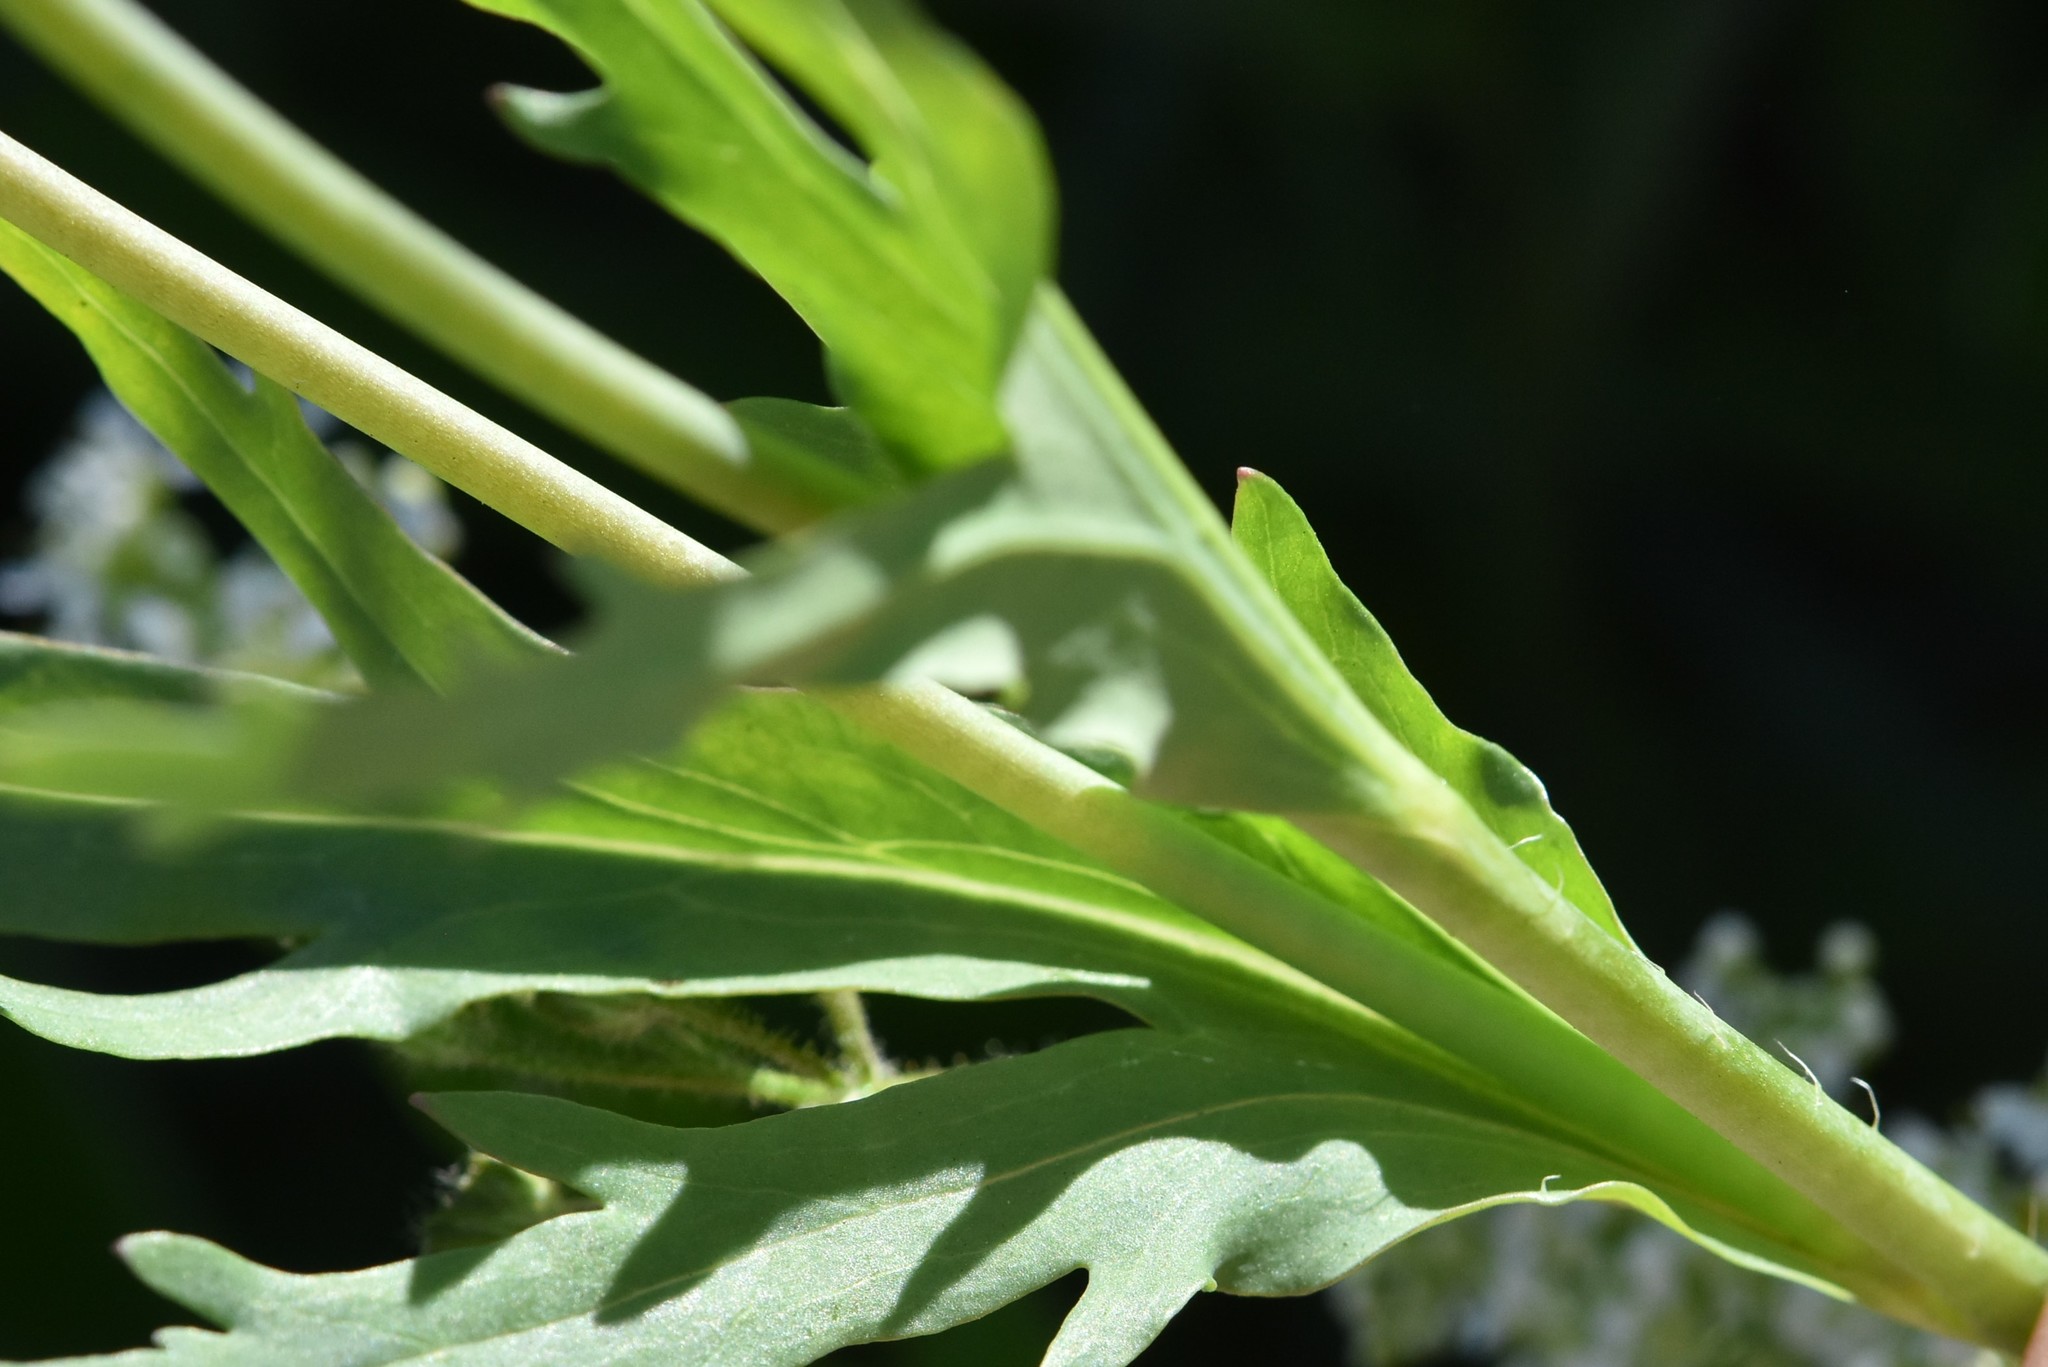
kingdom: Plantae
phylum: Tracheophyta
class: Magnoliopsida
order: Ranunculales
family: Papaveraceae
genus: Papaver
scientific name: Papaver laevigatum
